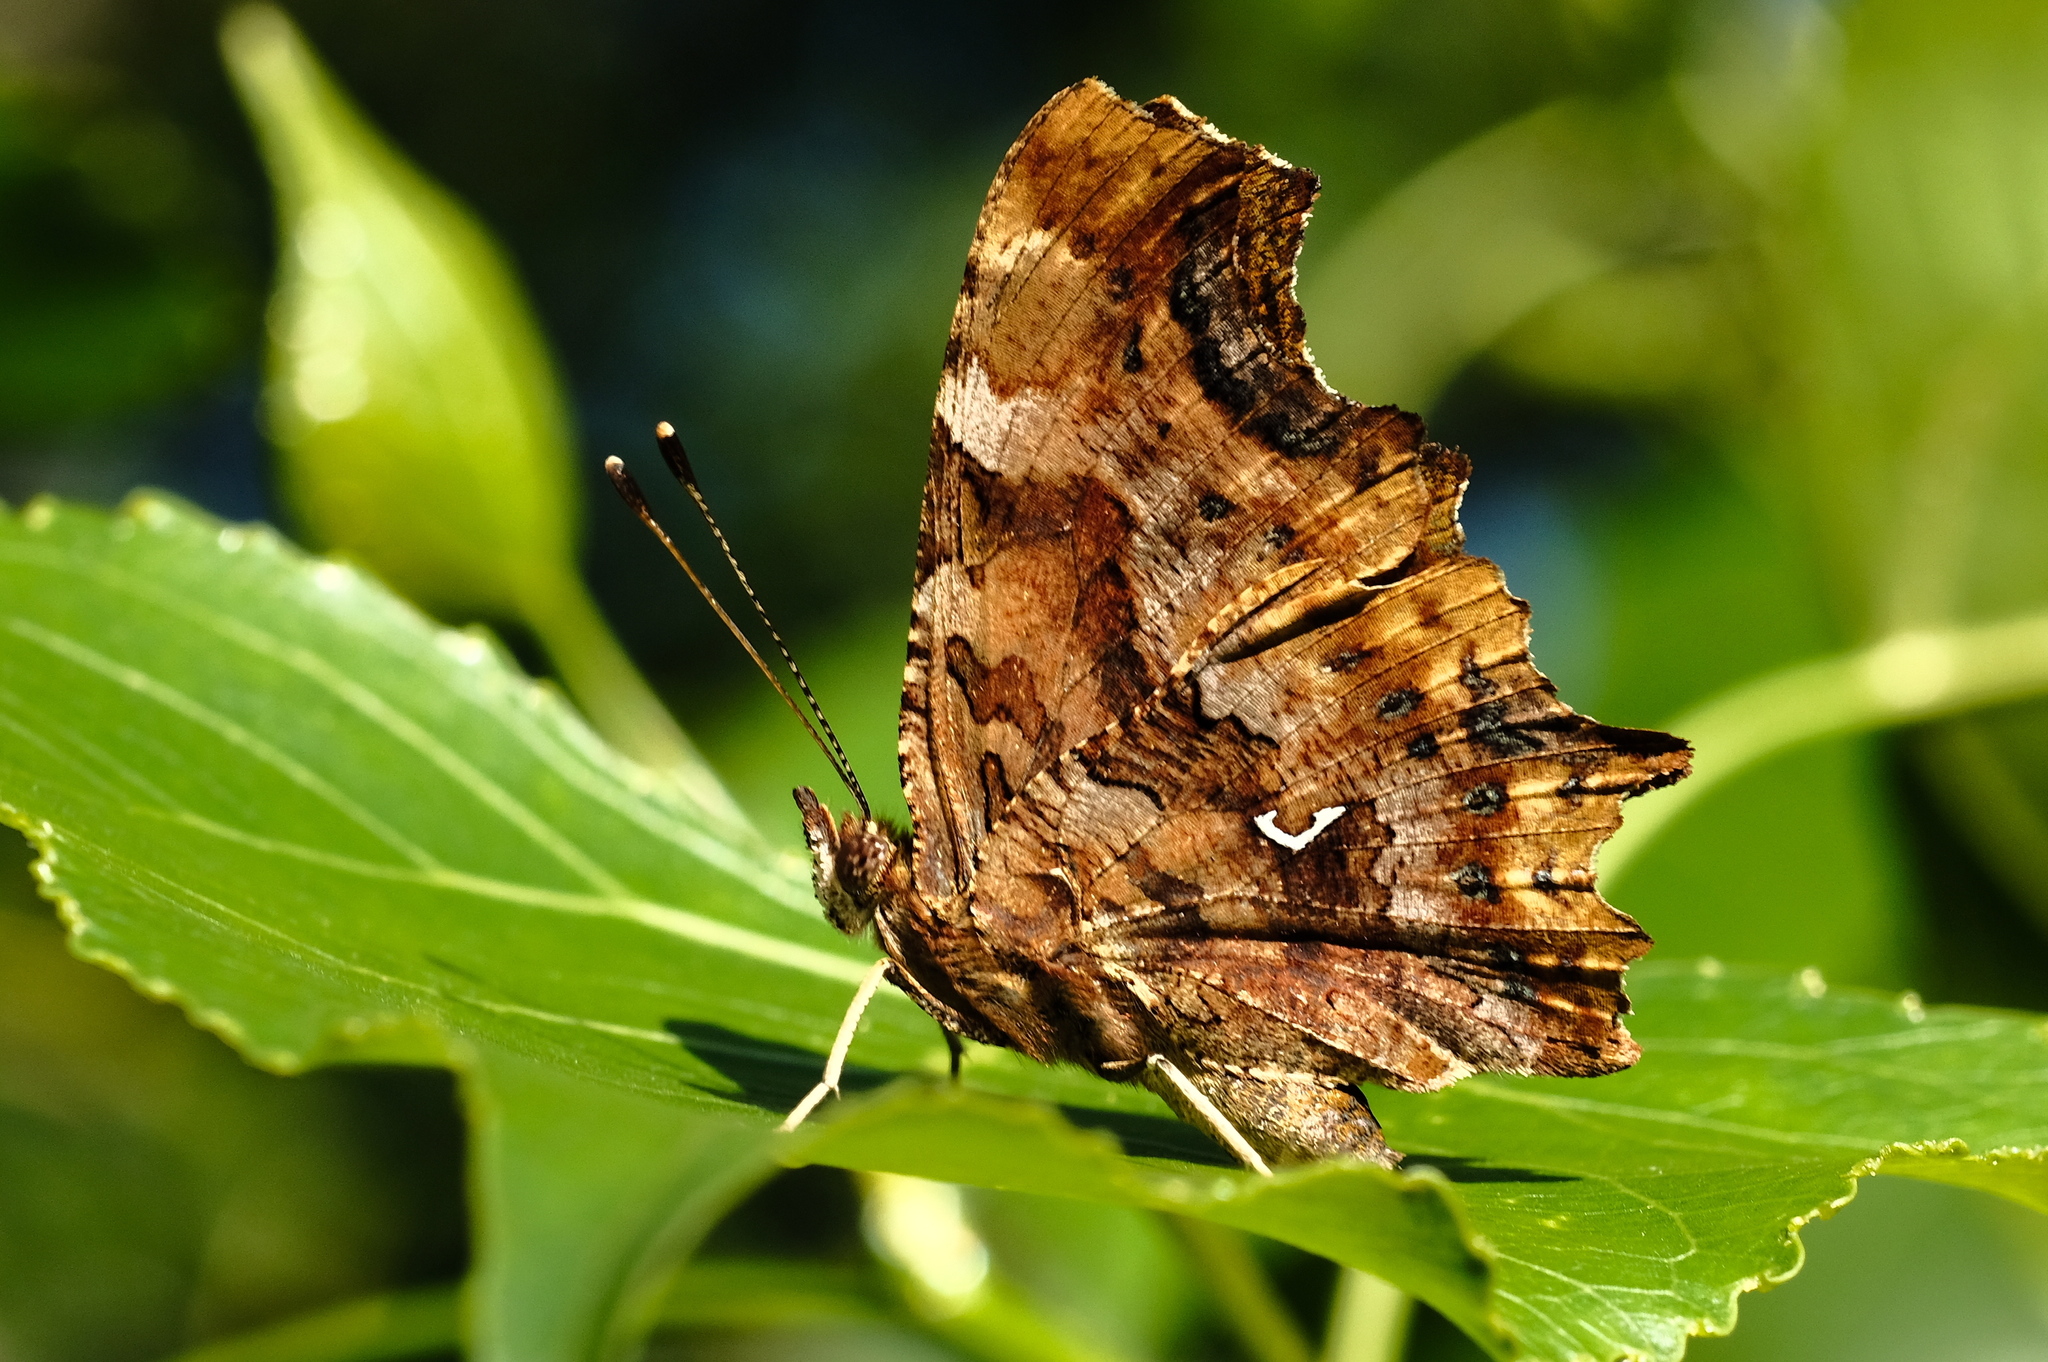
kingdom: Animalia
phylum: Arthropoda
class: Insecta
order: Lepidoptera
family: Nymphalidae
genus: Polygonia
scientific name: Polygonia c-album
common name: Comma
